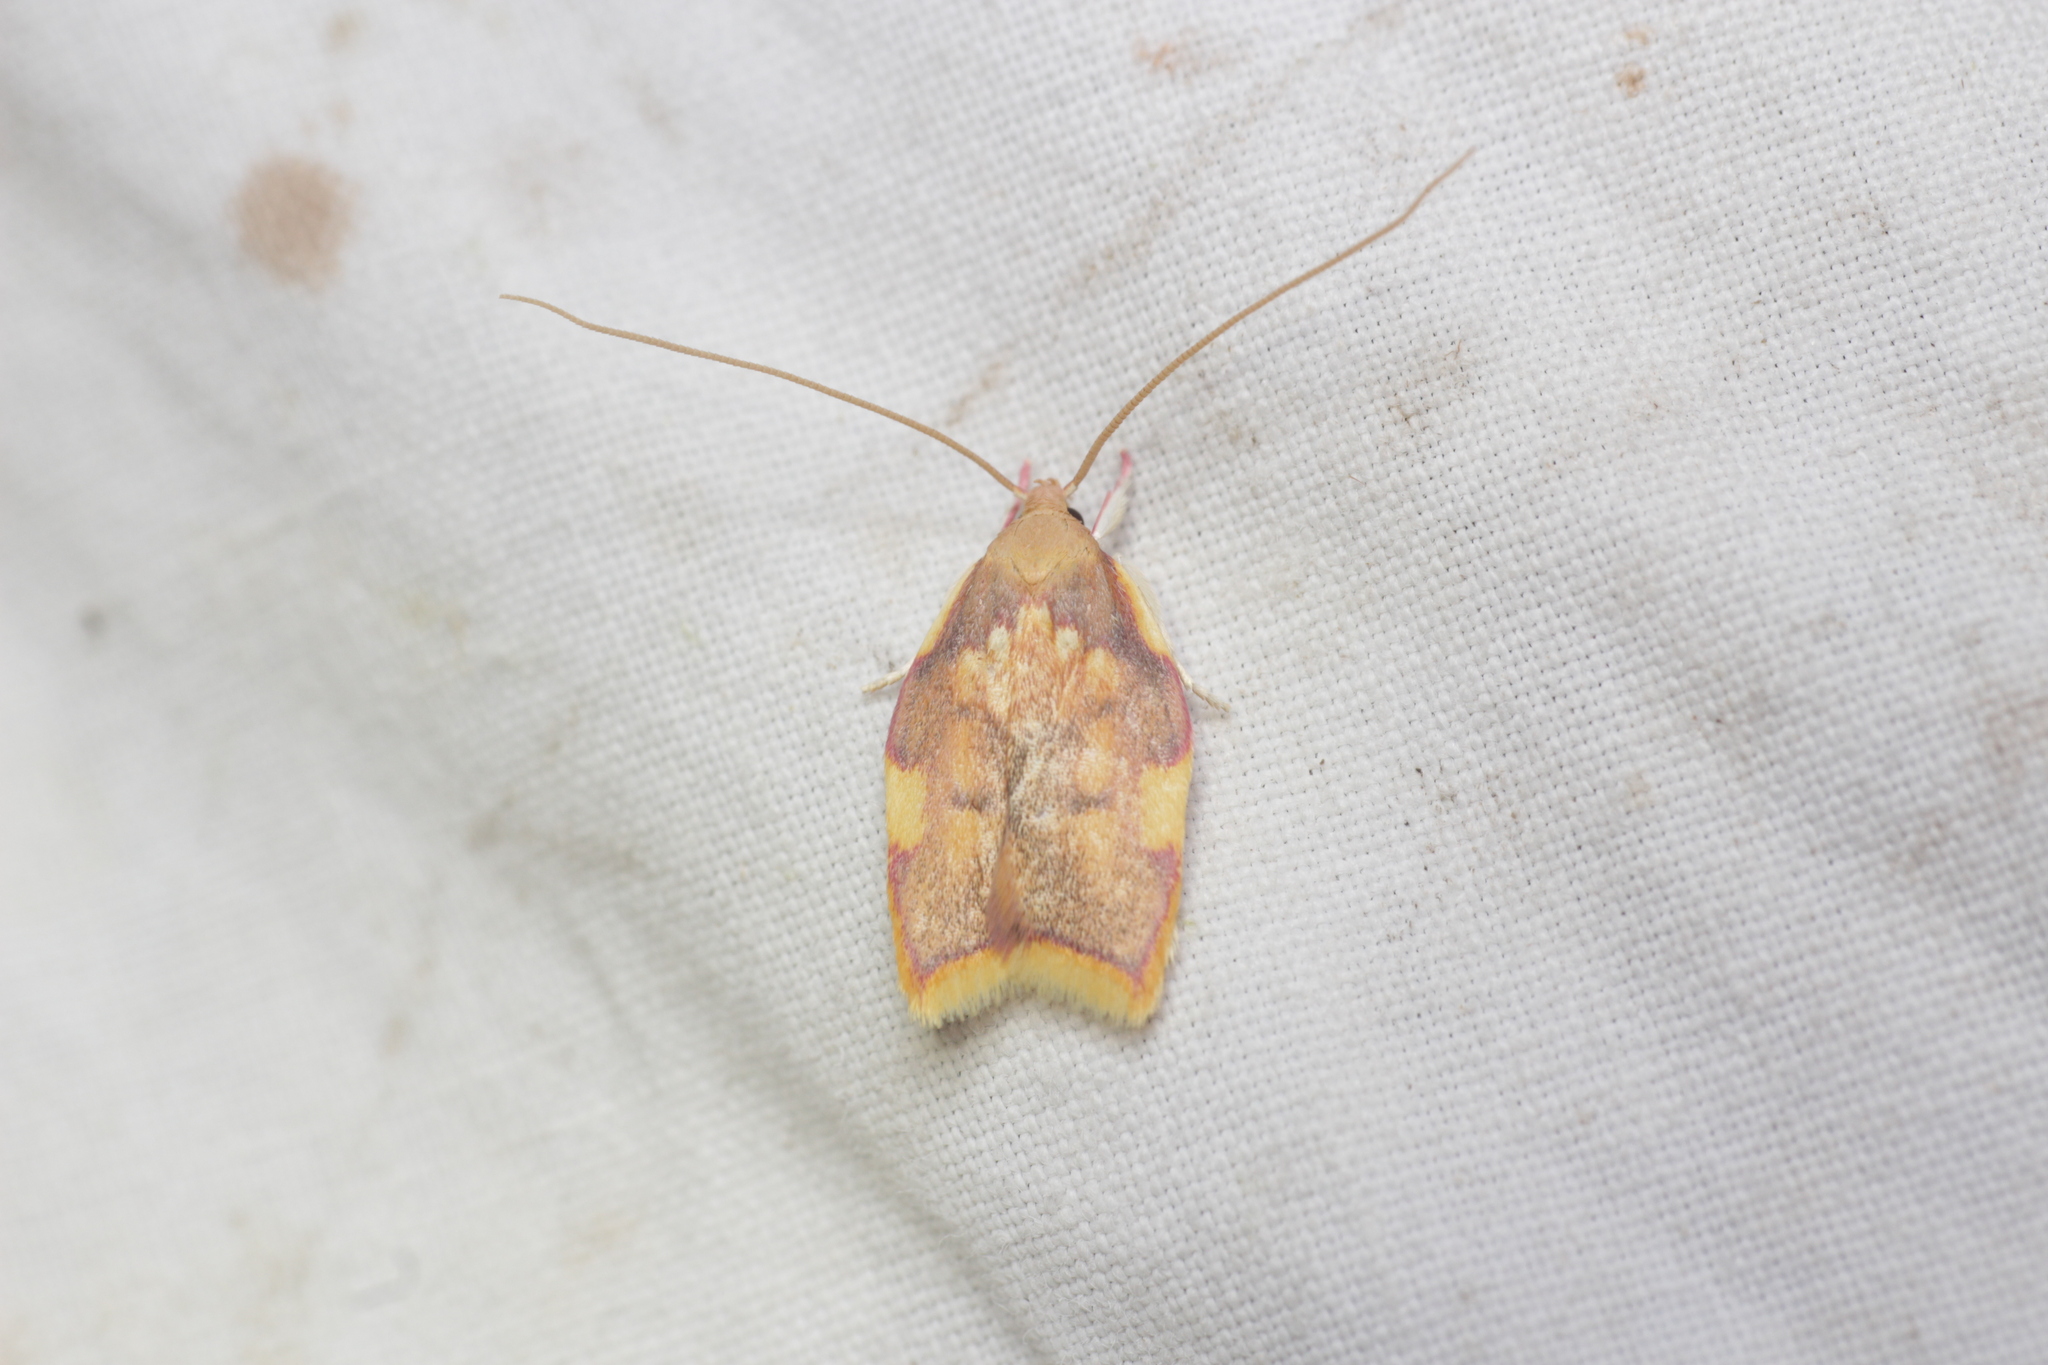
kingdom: Animalia
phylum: Arthropoda
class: Insecta
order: Lepidoptera
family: Peleopodidae
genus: Carcina
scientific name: Carcina quercana
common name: Moth
